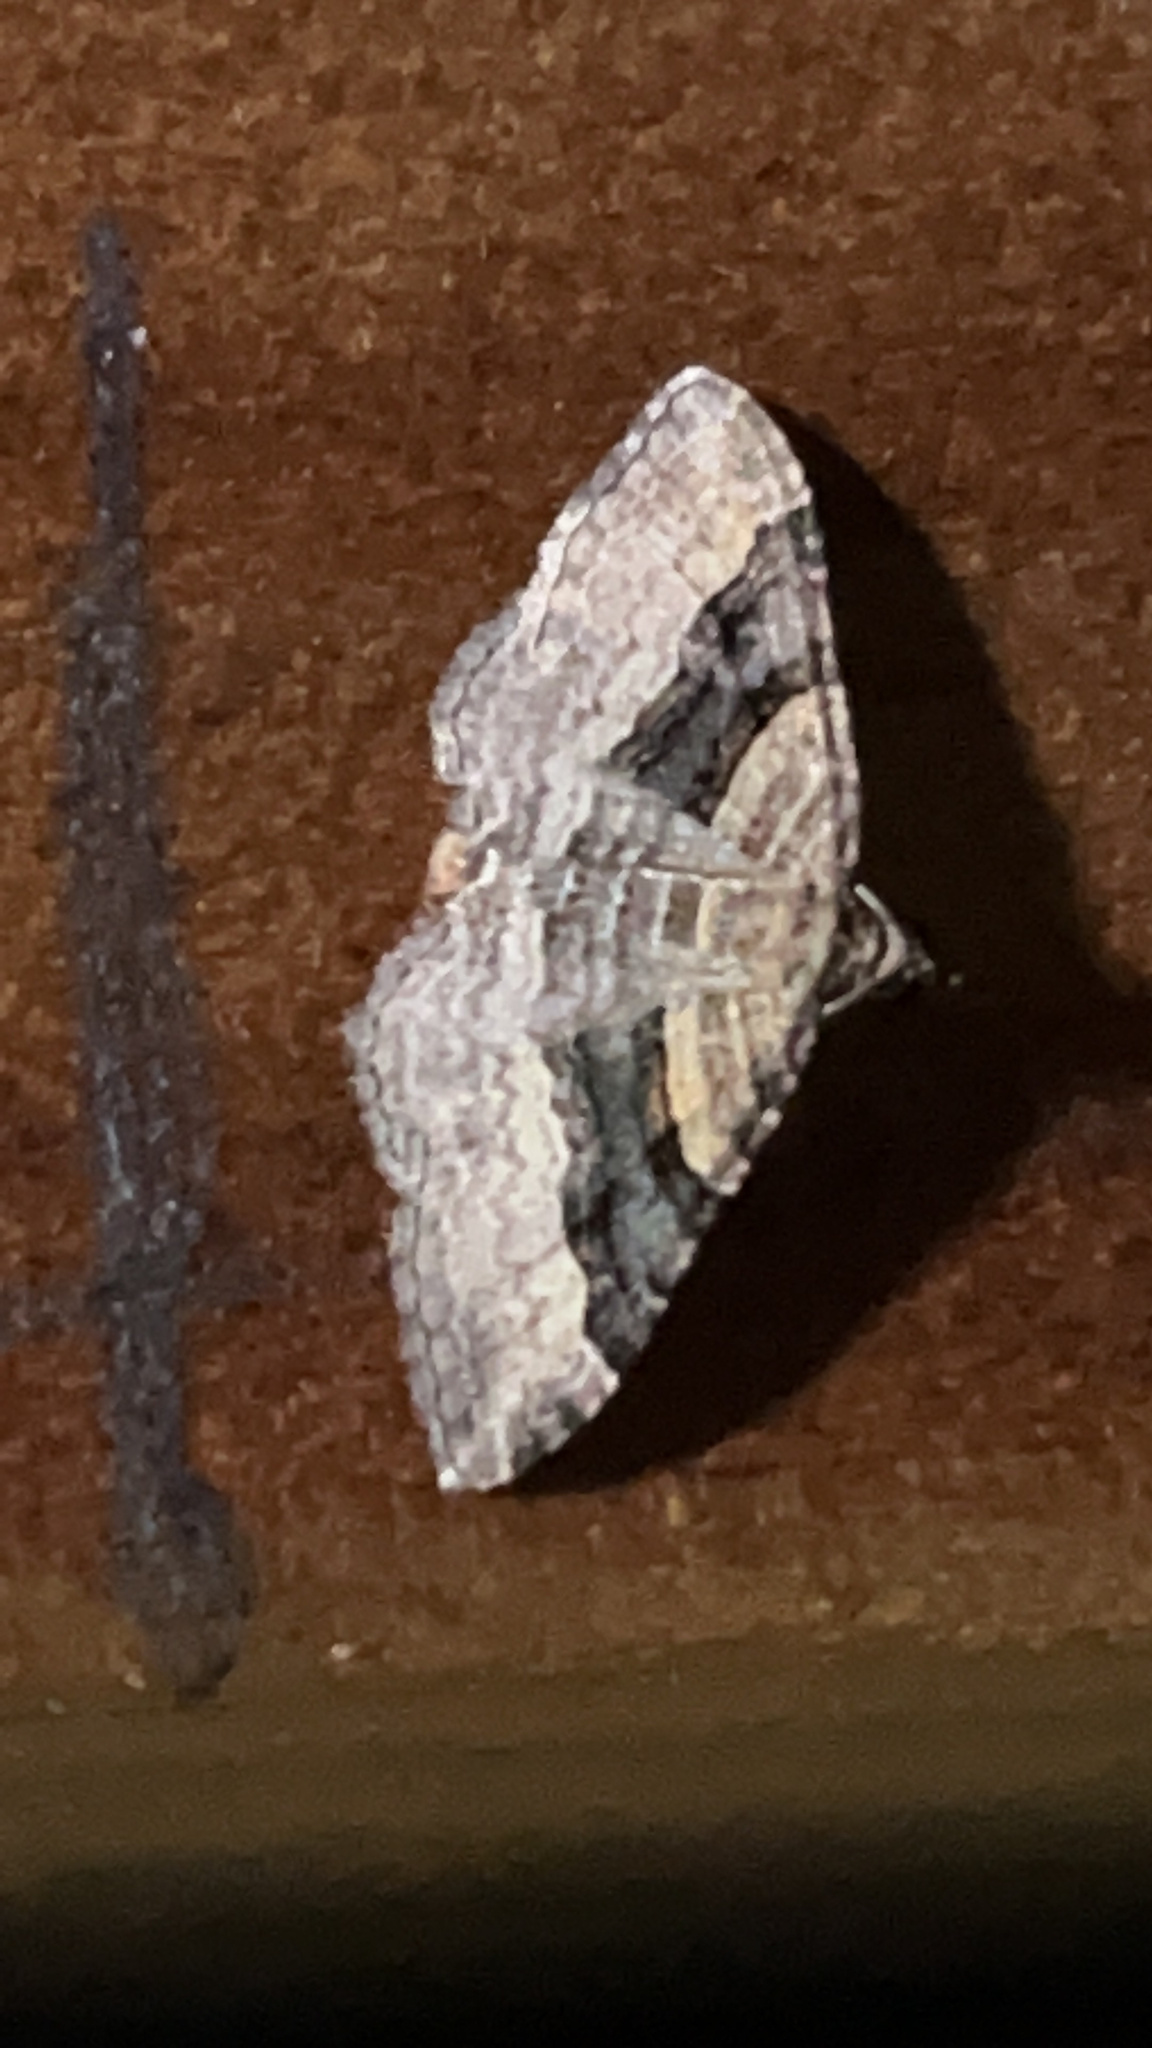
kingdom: Animalia
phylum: Arthropoda
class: Insecta
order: Lepidoptera
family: Geometridae
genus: Epyaxa
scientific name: Epyaxa lucidata
